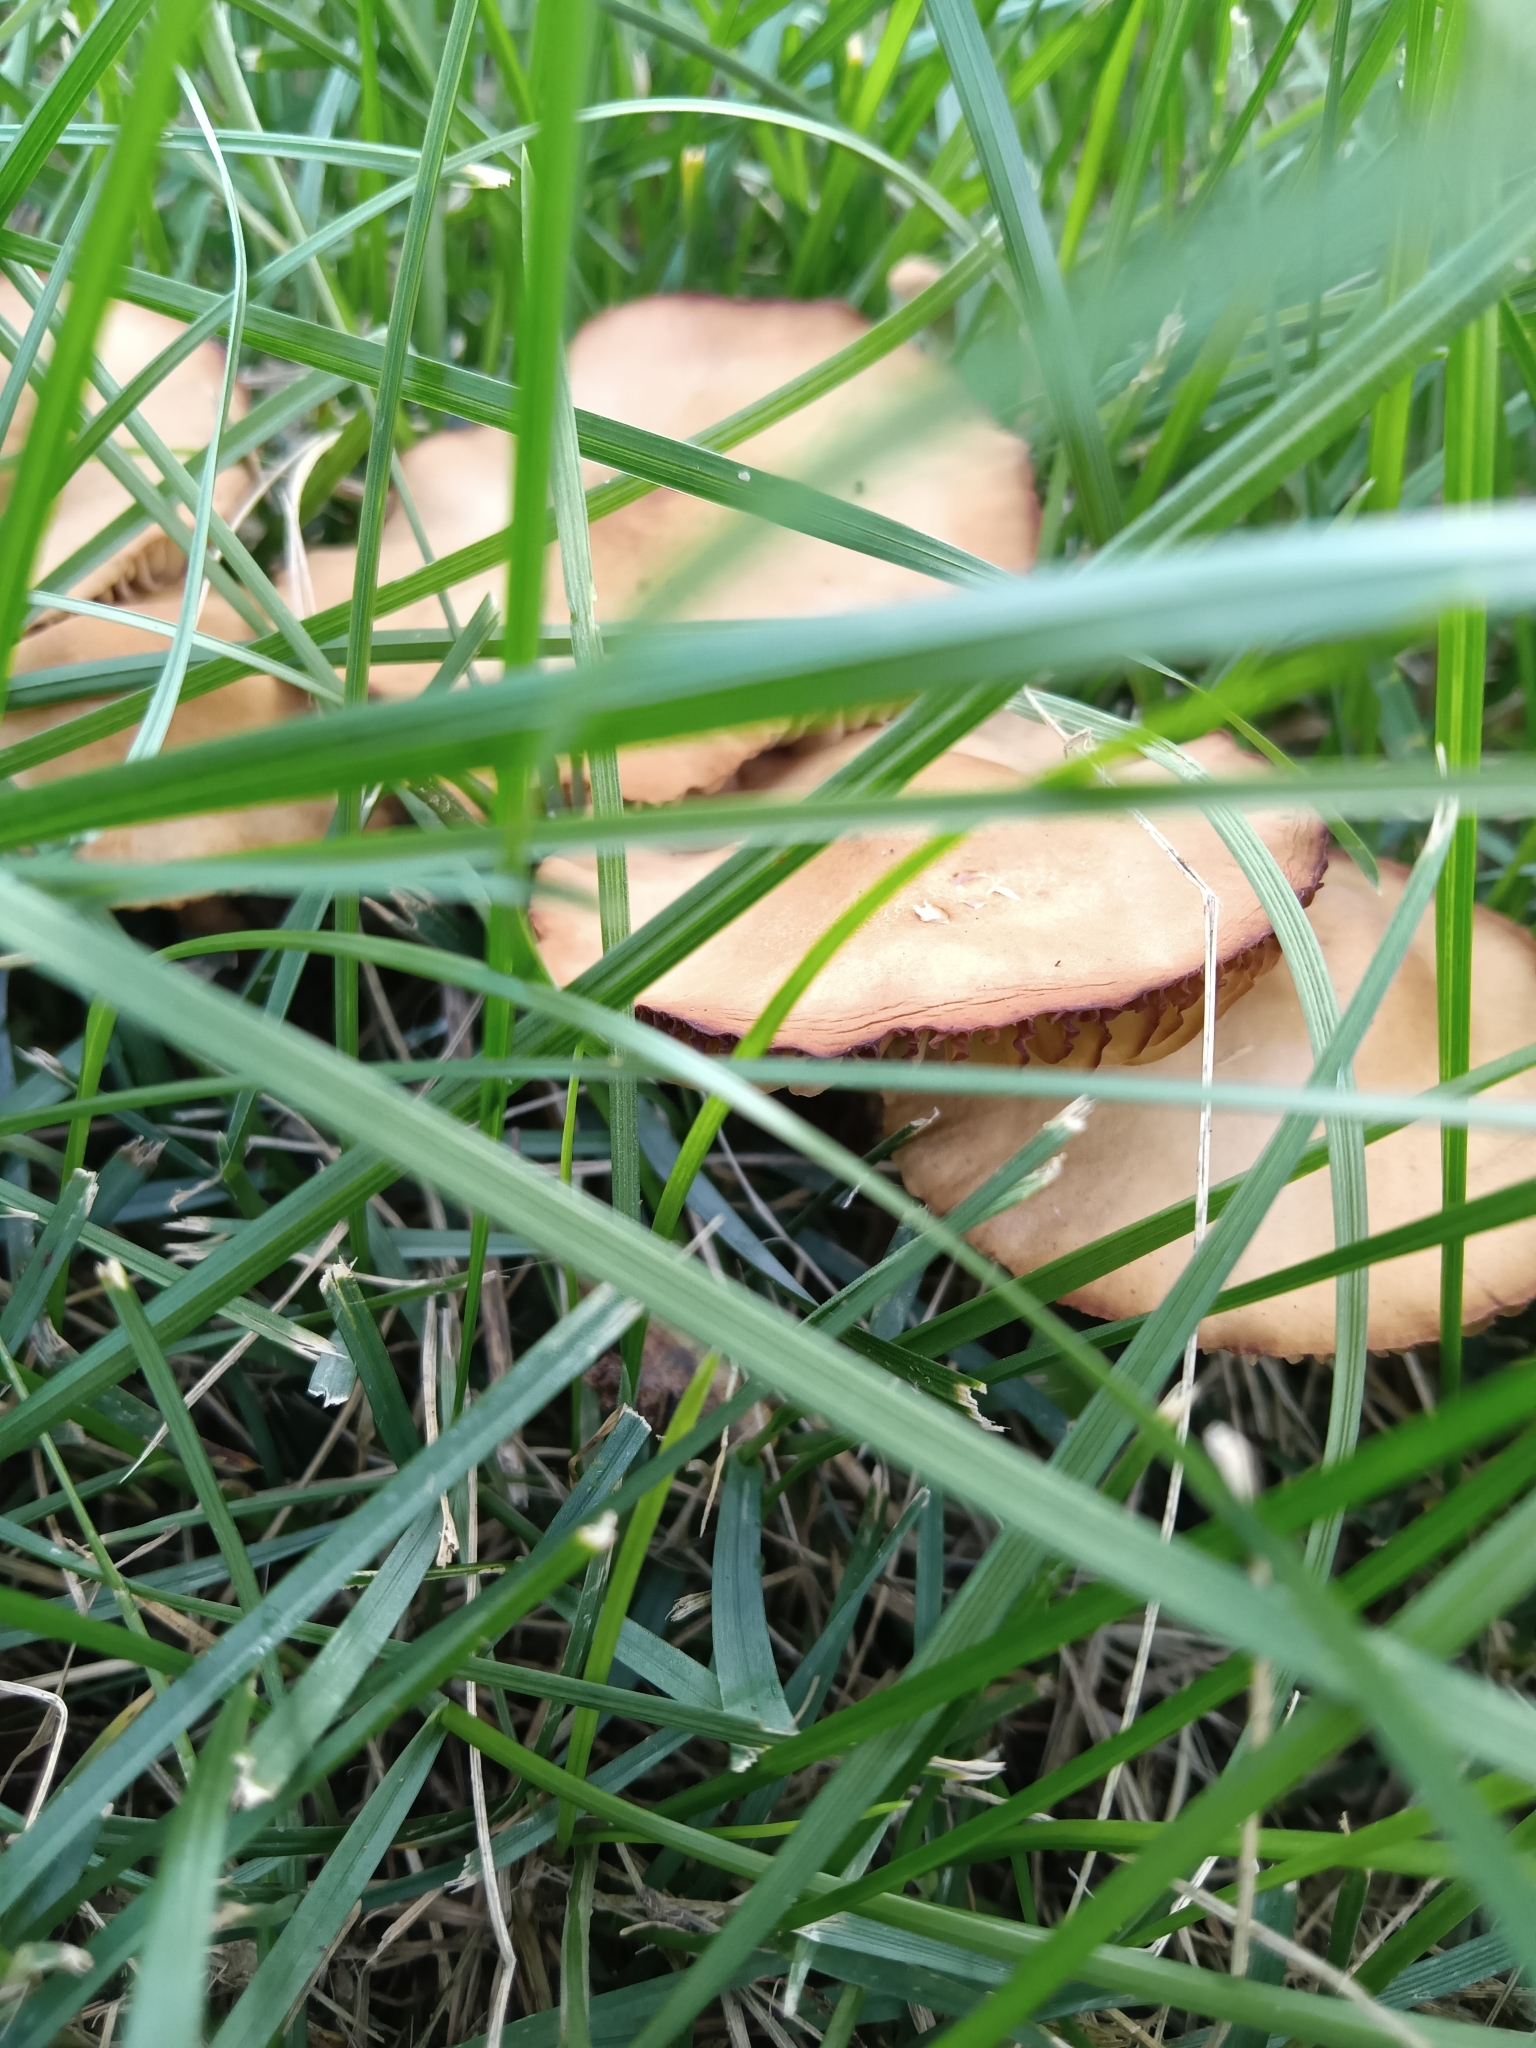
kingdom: Fungi
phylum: Basidiomycota
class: Agaricomycetes
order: Agaricales
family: Marasmiaceae
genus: Marasmius
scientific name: Marasmius oreades
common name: Fairy ring champignon
